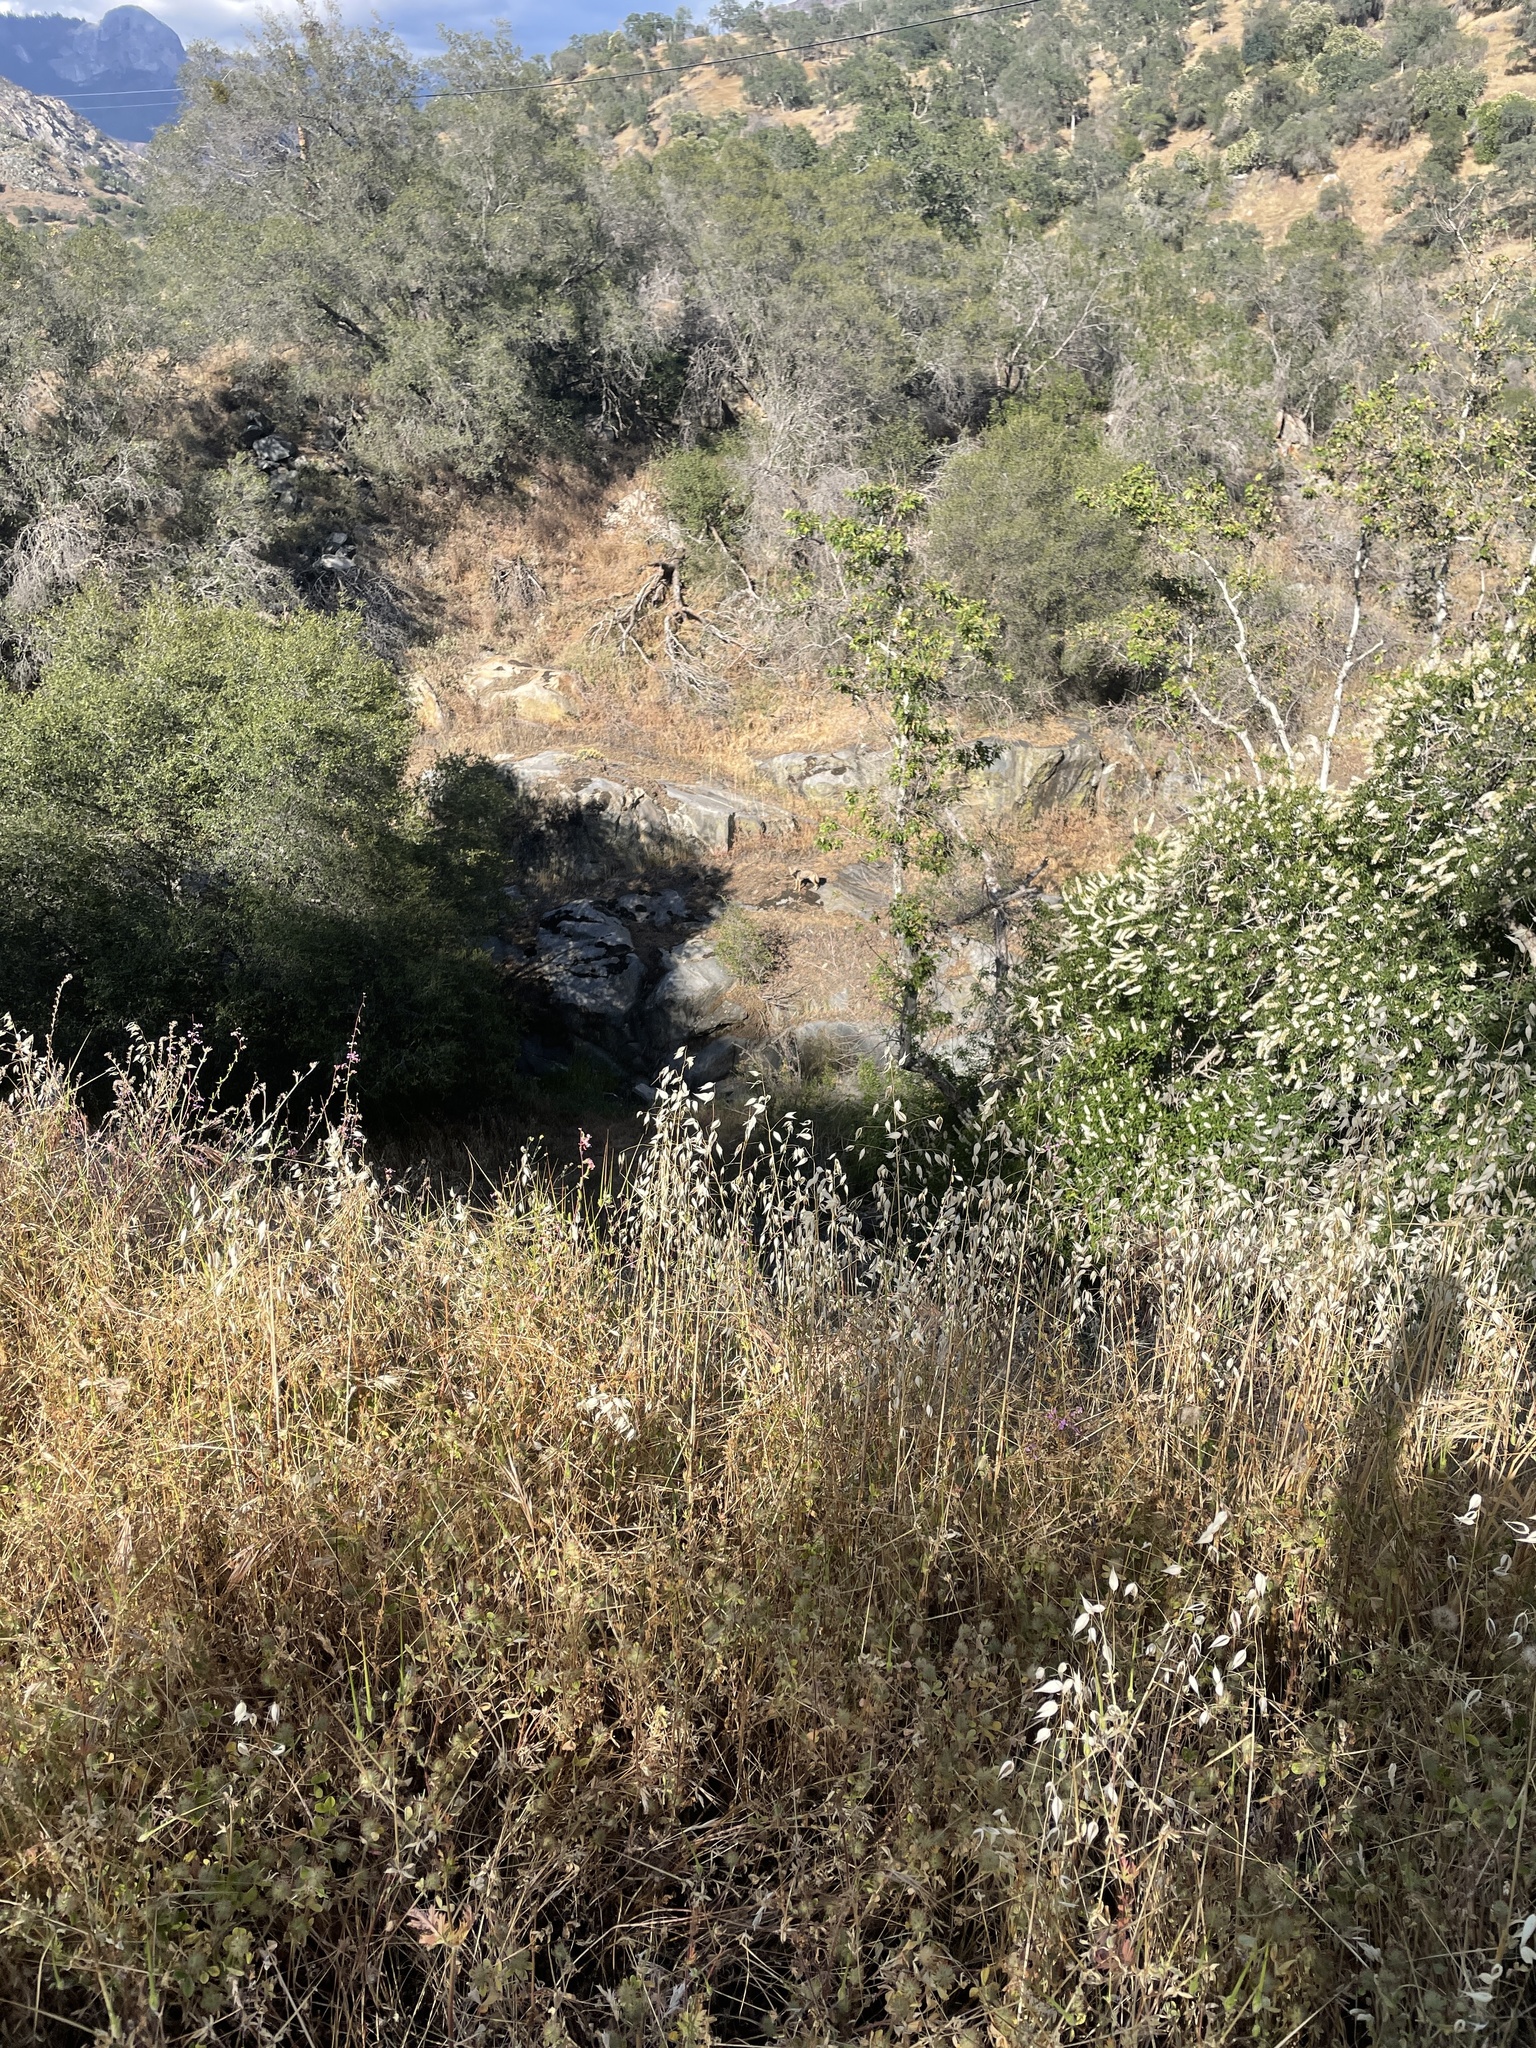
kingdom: Animalia
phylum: Chordata
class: Mammalia
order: Carnivora
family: Canidae
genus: Canis
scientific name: Canis latrans
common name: Coyote
